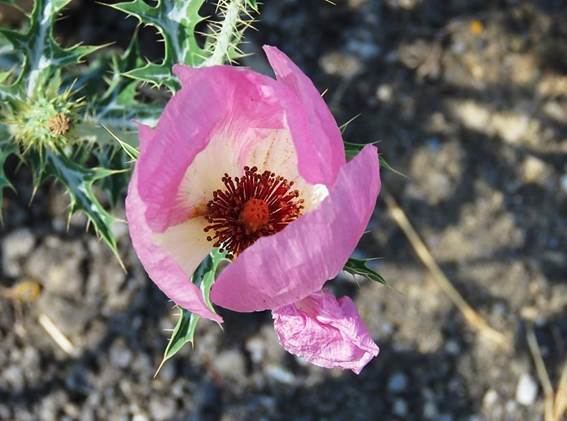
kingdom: Plantae
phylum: Tracheophyta
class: Magnoliopsida
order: Ranunculales
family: Papaveraceae
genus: Argemone
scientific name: Argemone sanguinea
